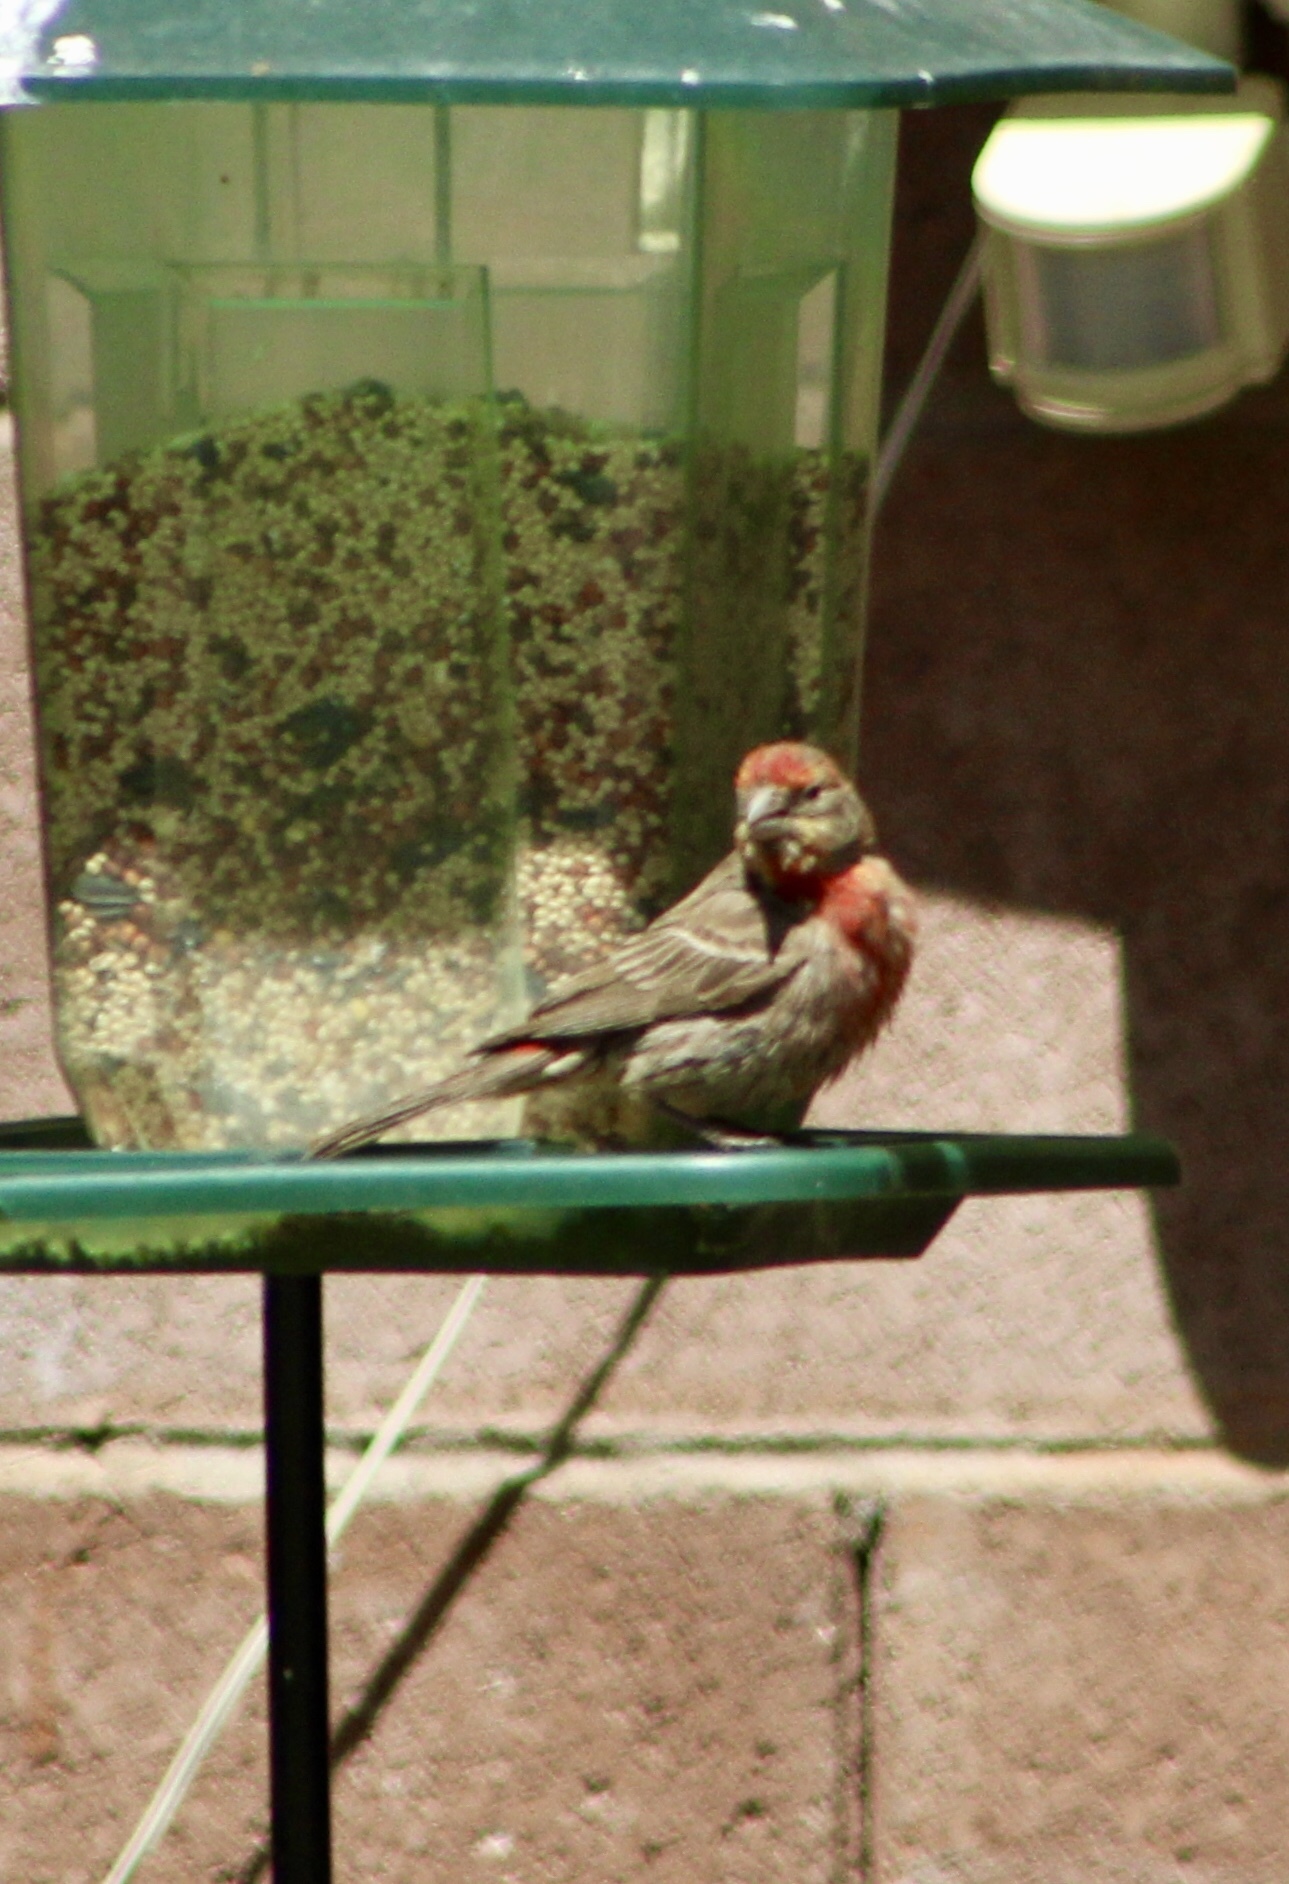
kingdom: Animalia
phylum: Chordata
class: Aves
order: Passeriformes
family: Fringillidae
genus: Haemorhous
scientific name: Haemorhous mexicanus
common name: House finch
